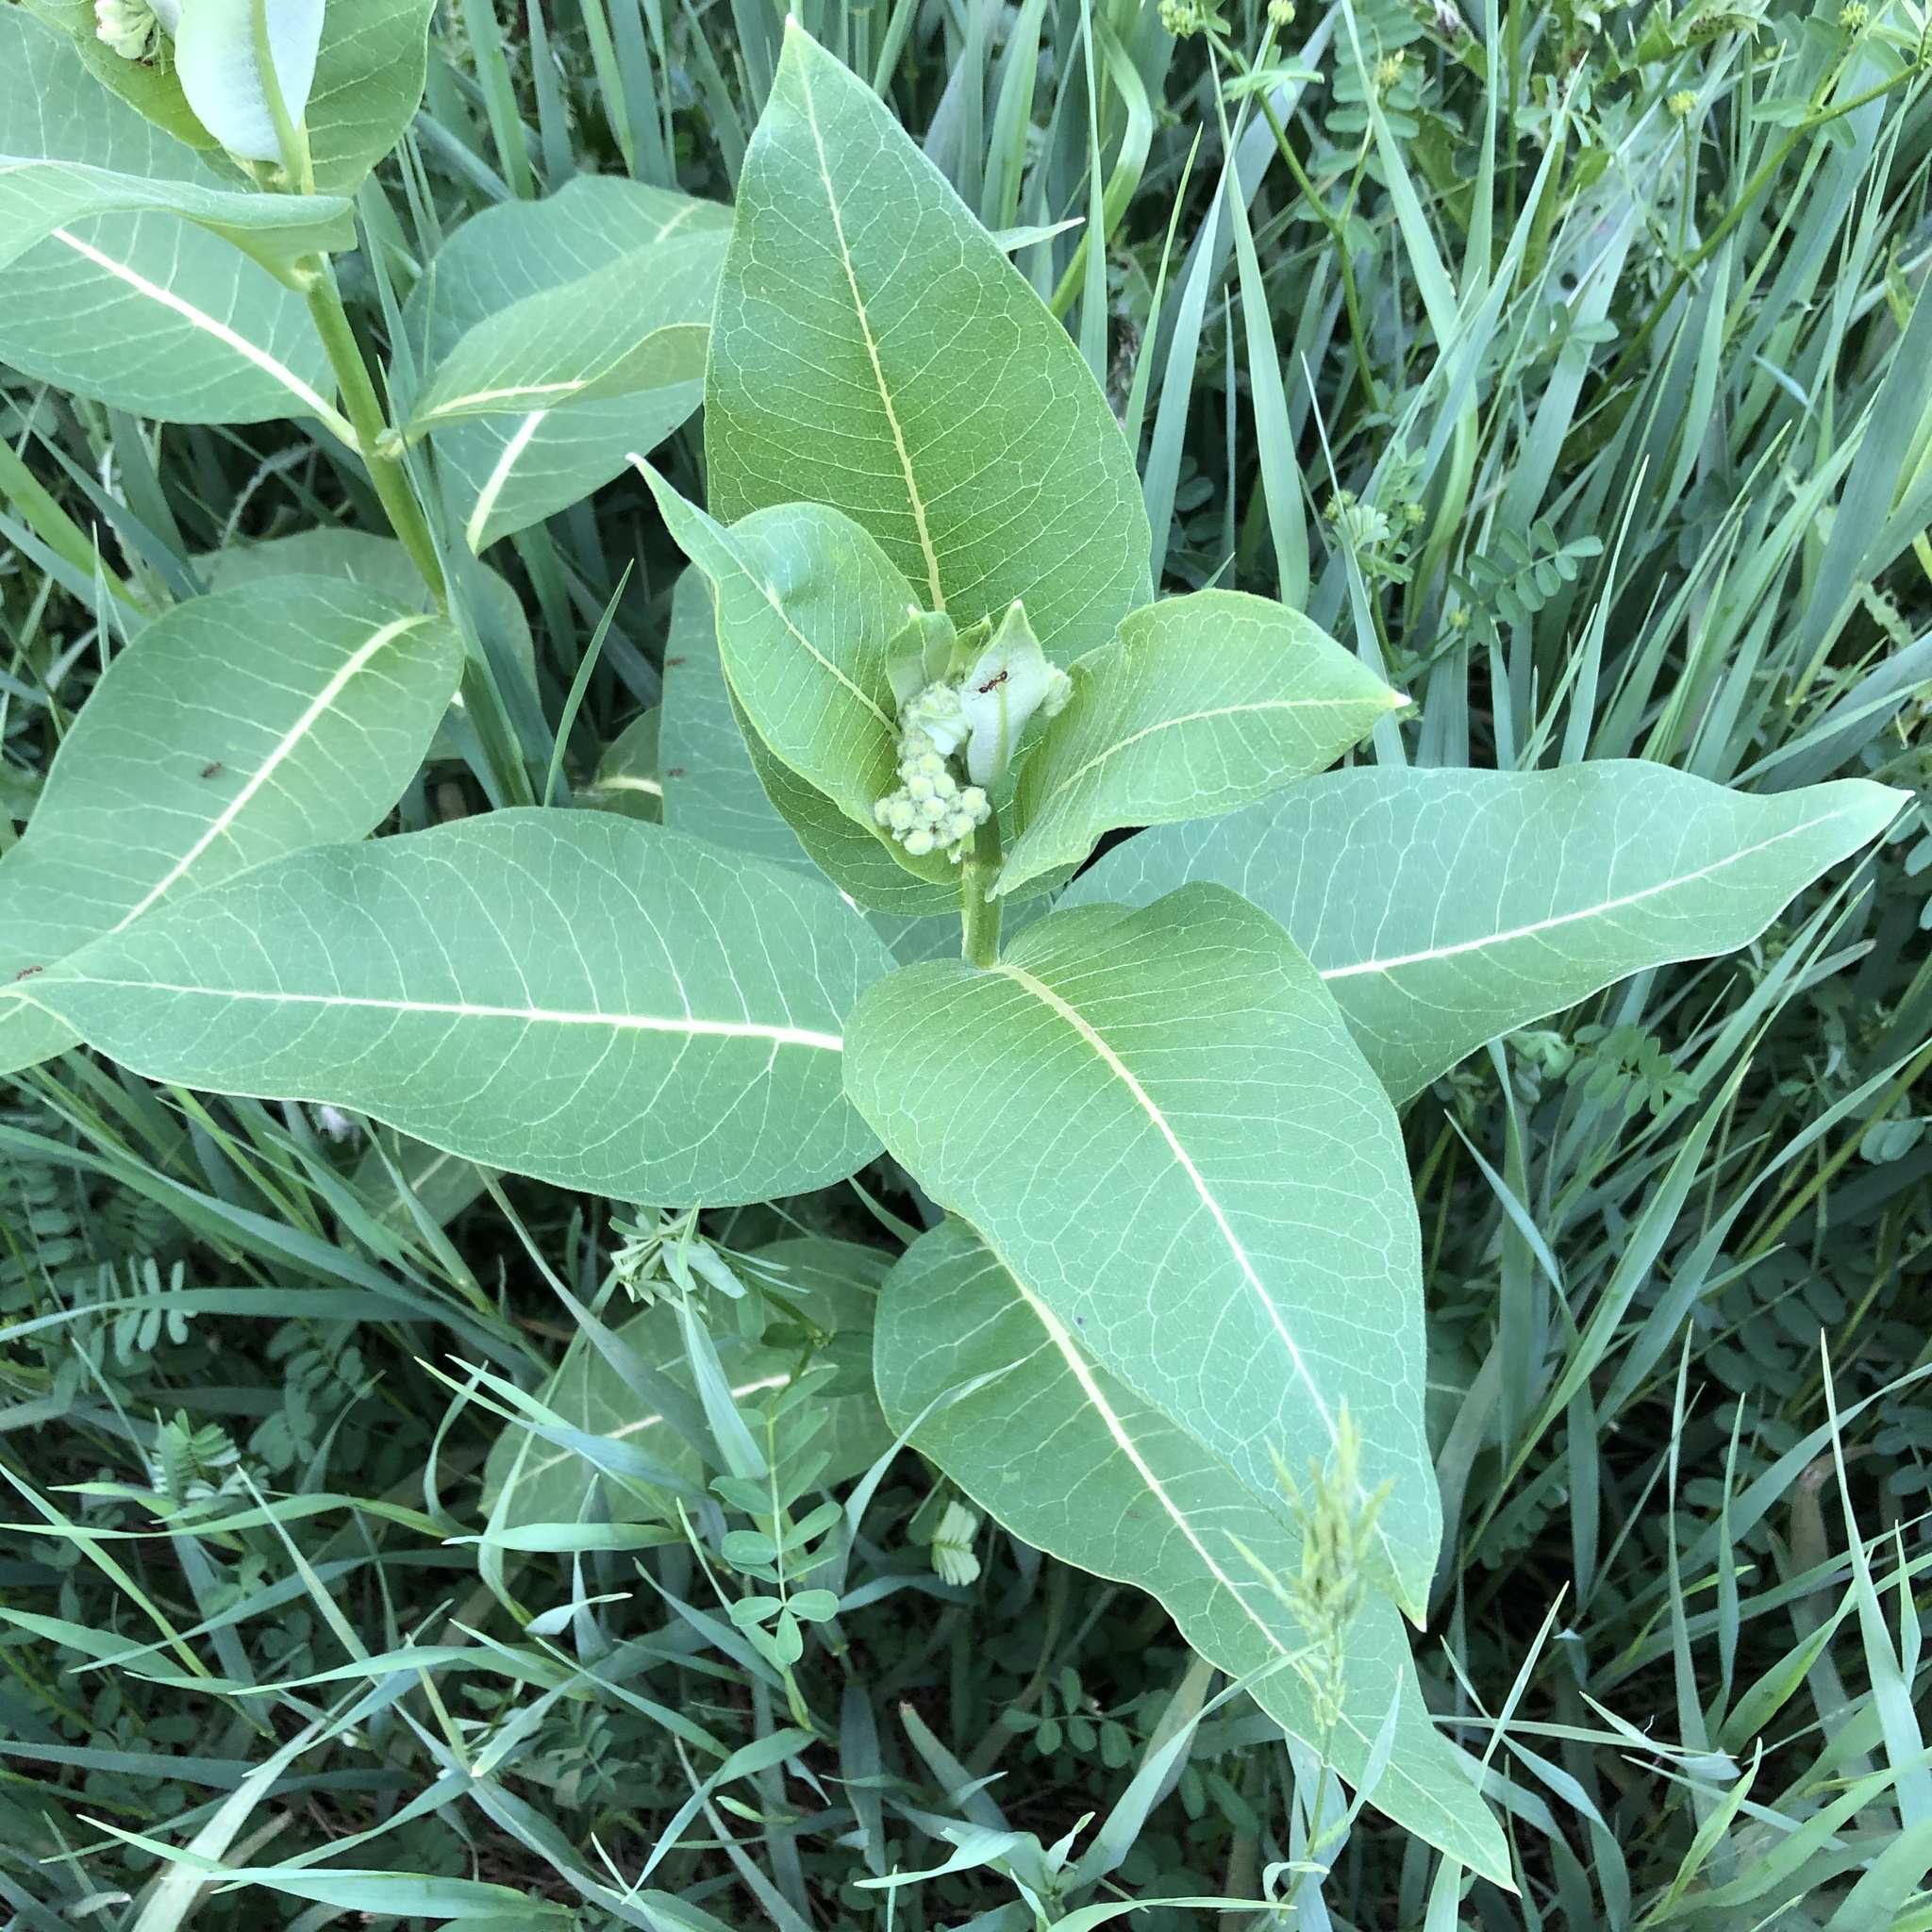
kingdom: Plantae
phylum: Tracheophyta
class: Magnoliopsida
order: Gentianales
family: Apocynaceae
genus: Asclepias
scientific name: Asclepias syriaca
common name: Common milkweed
